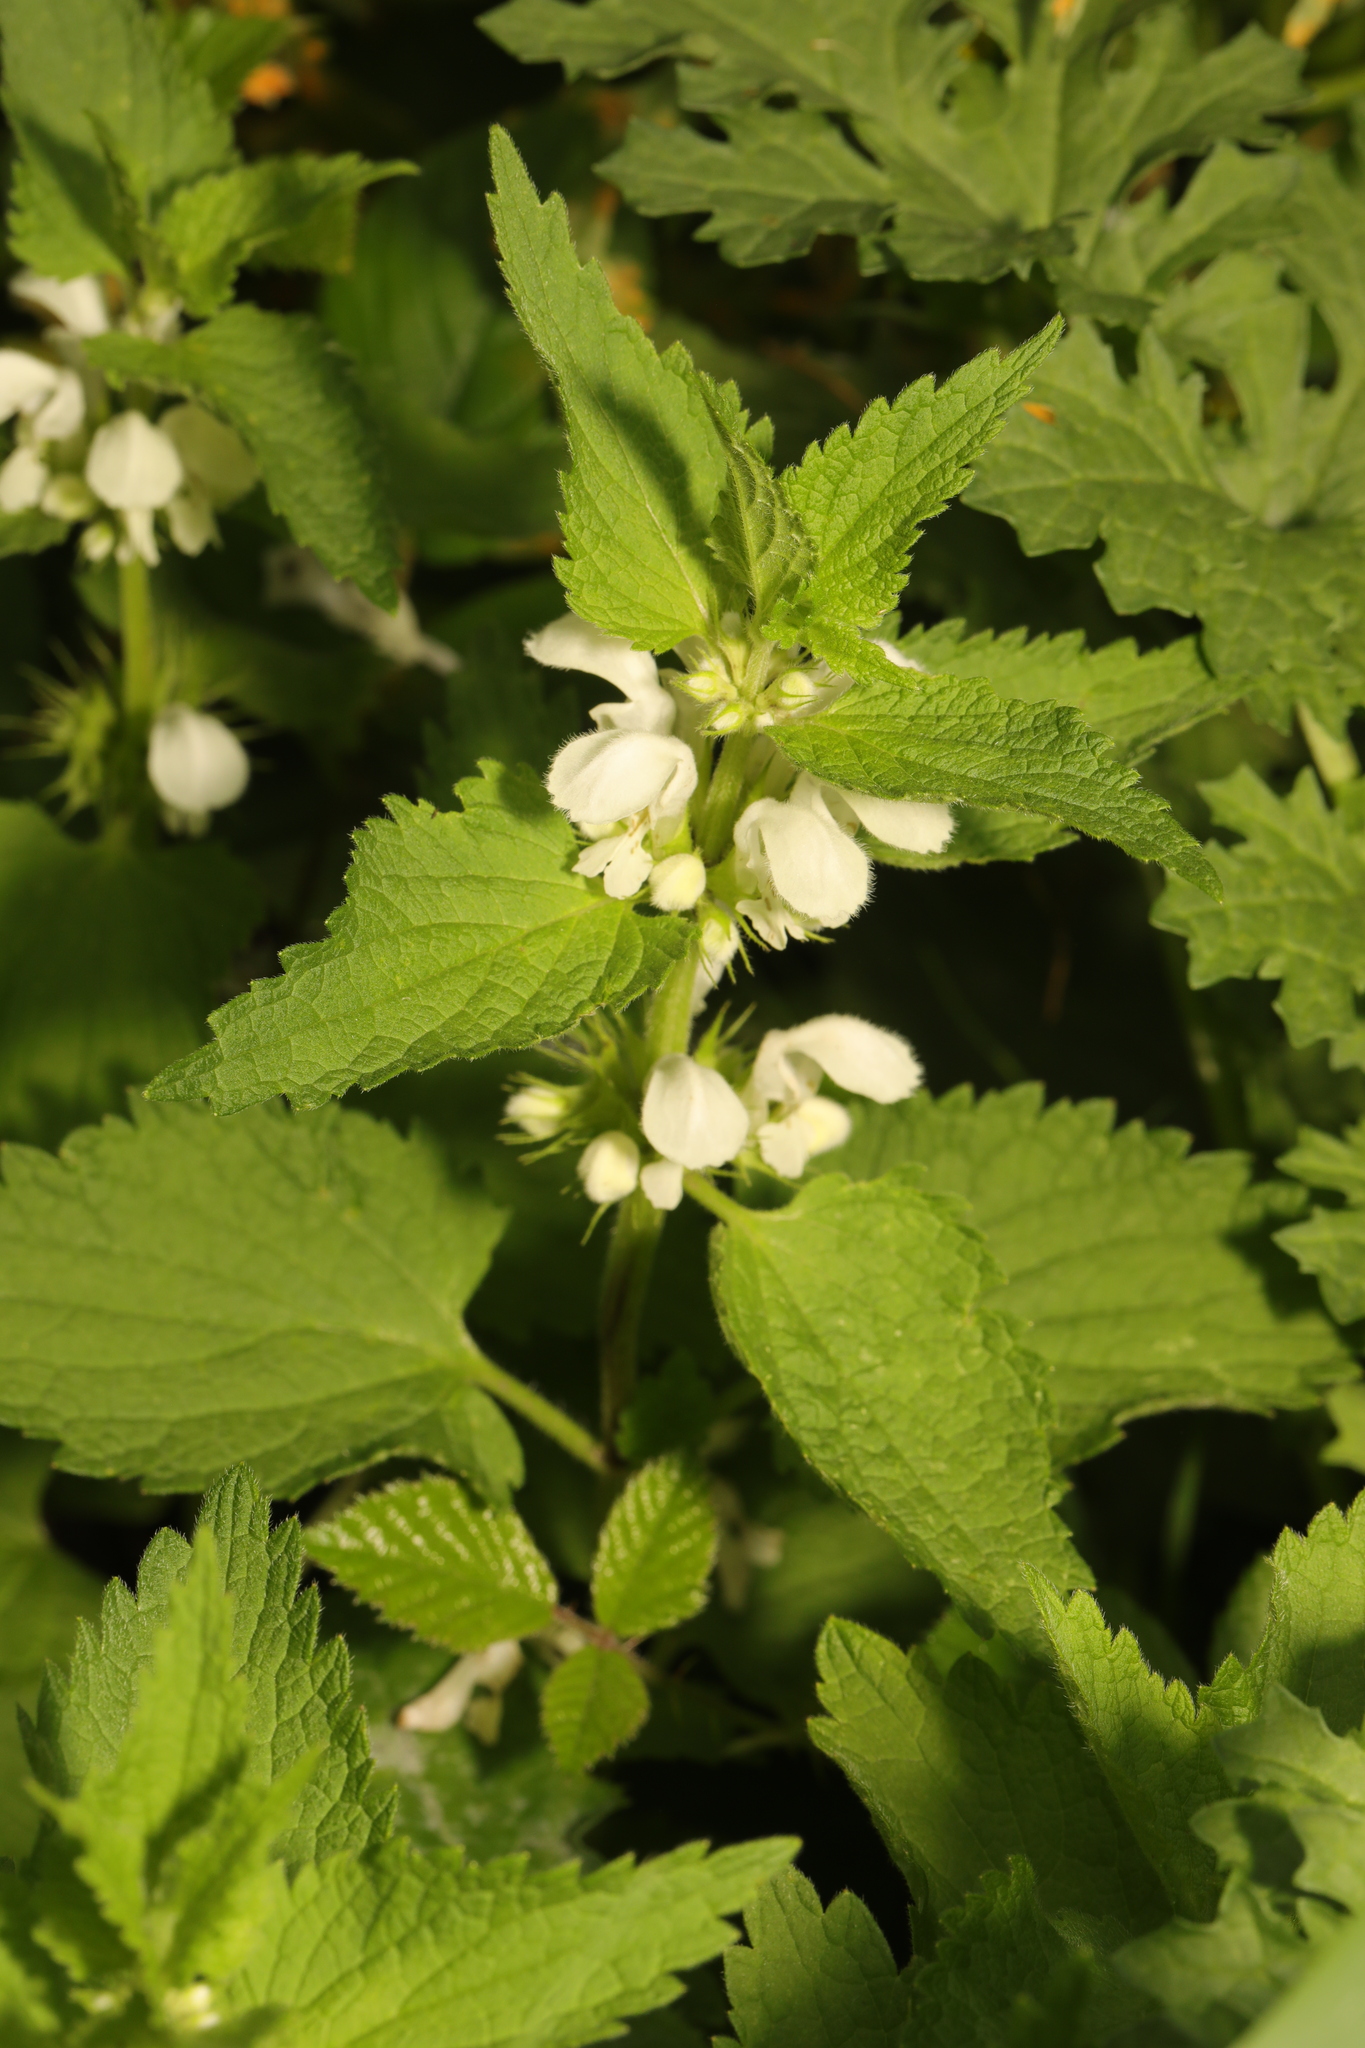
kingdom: Plantae
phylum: Tracheophyta
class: Magnoliopsida
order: Lamiales
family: Lamiaceae
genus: Lamium
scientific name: Lamium album
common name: White dead-nettle
